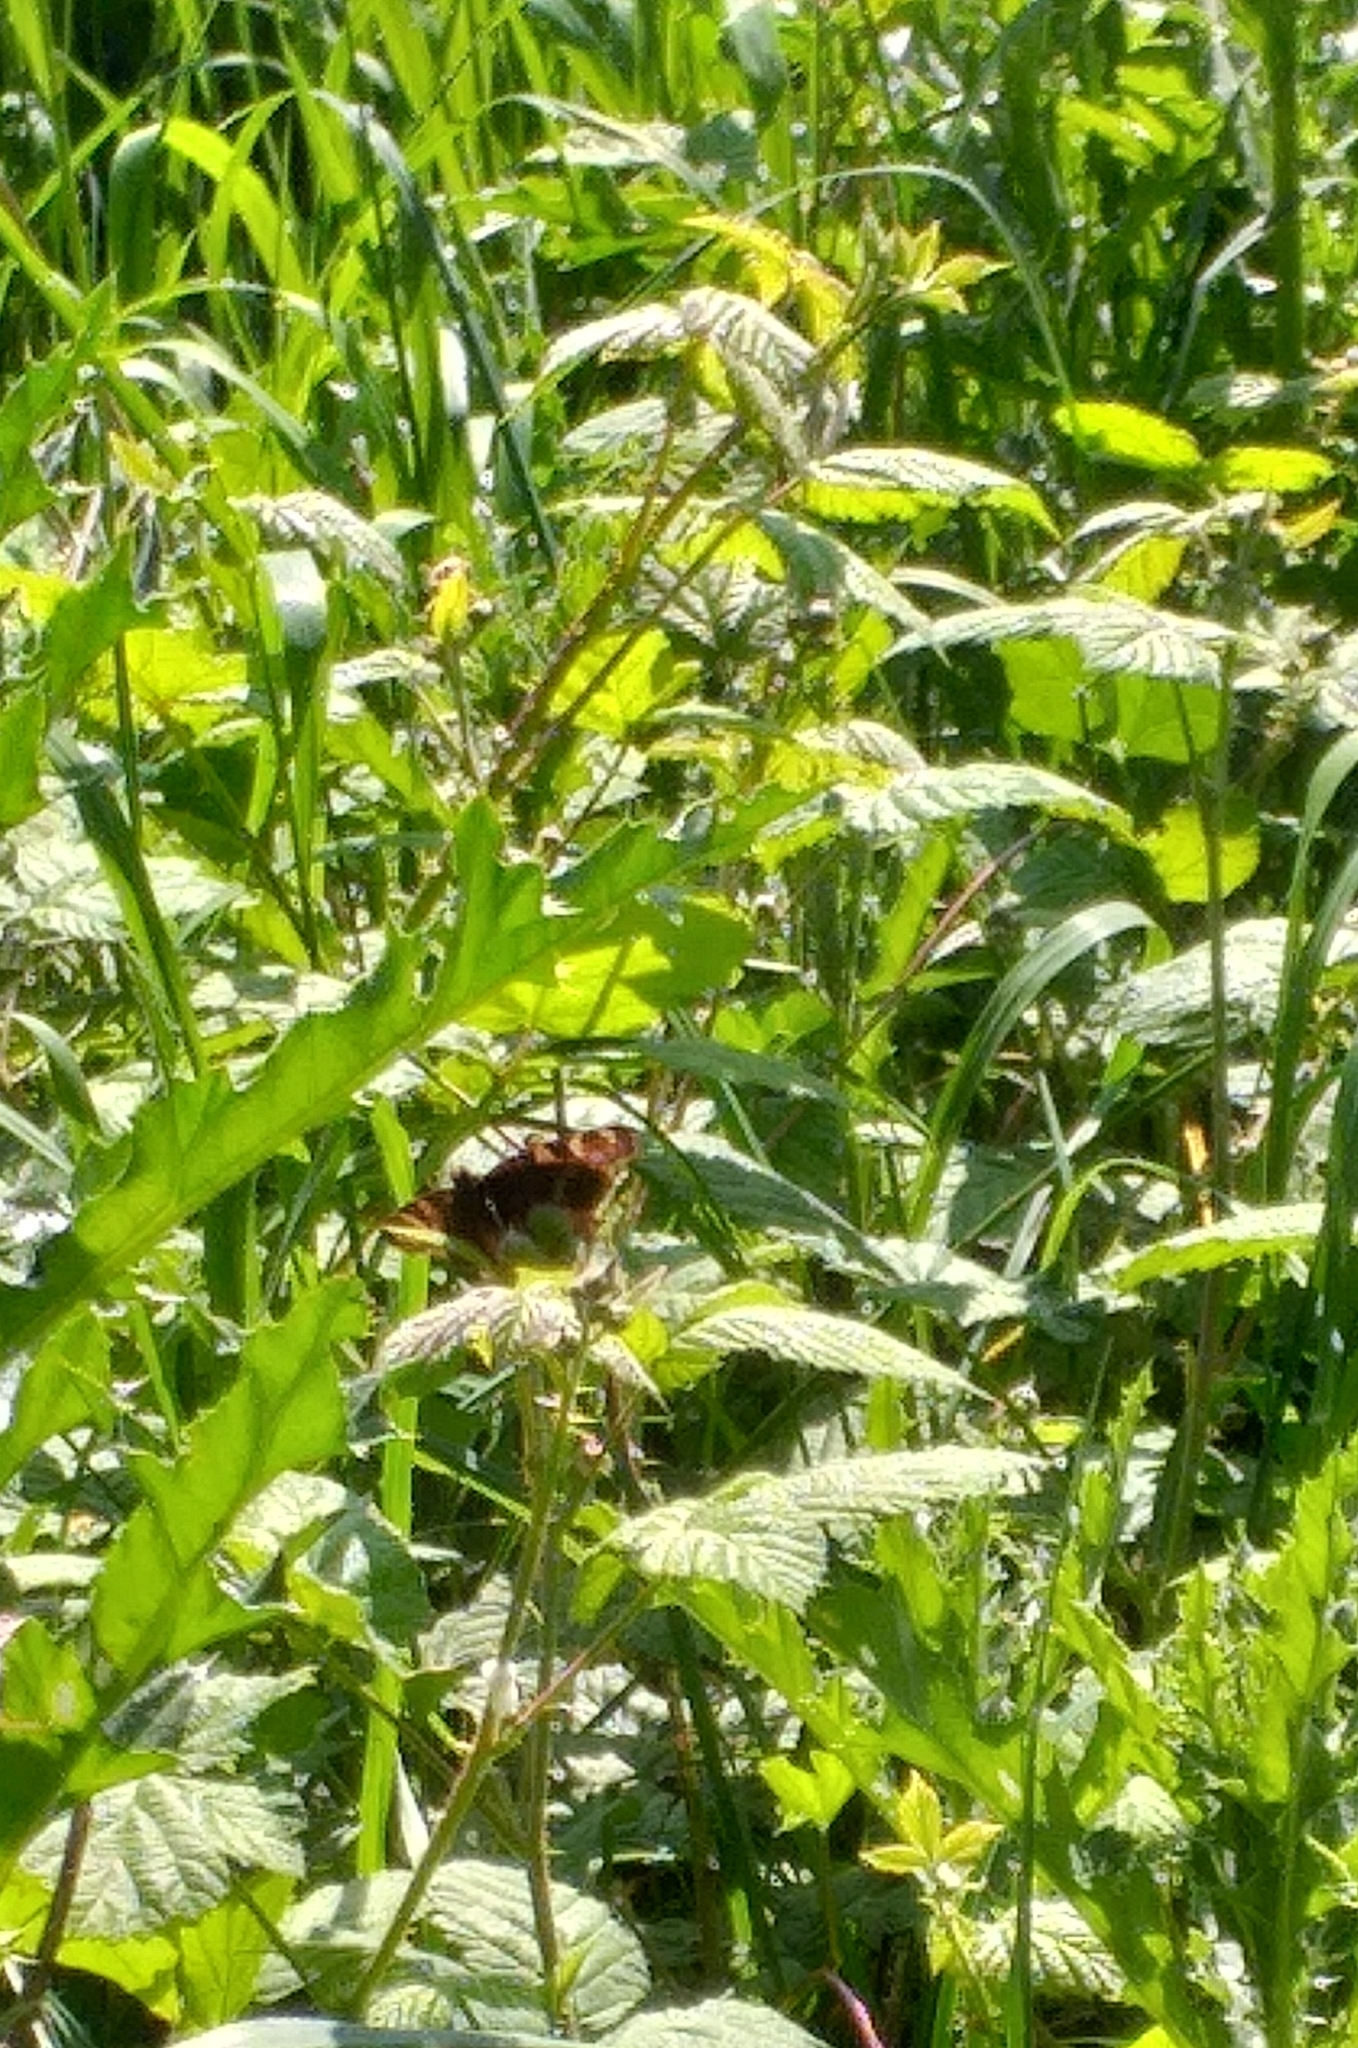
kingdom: Animalia
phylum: Arthropoda
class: Insecta
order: Lepidoptera
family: Nymphalidae
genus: Aglais
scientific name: Aglais io
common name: Peacock
